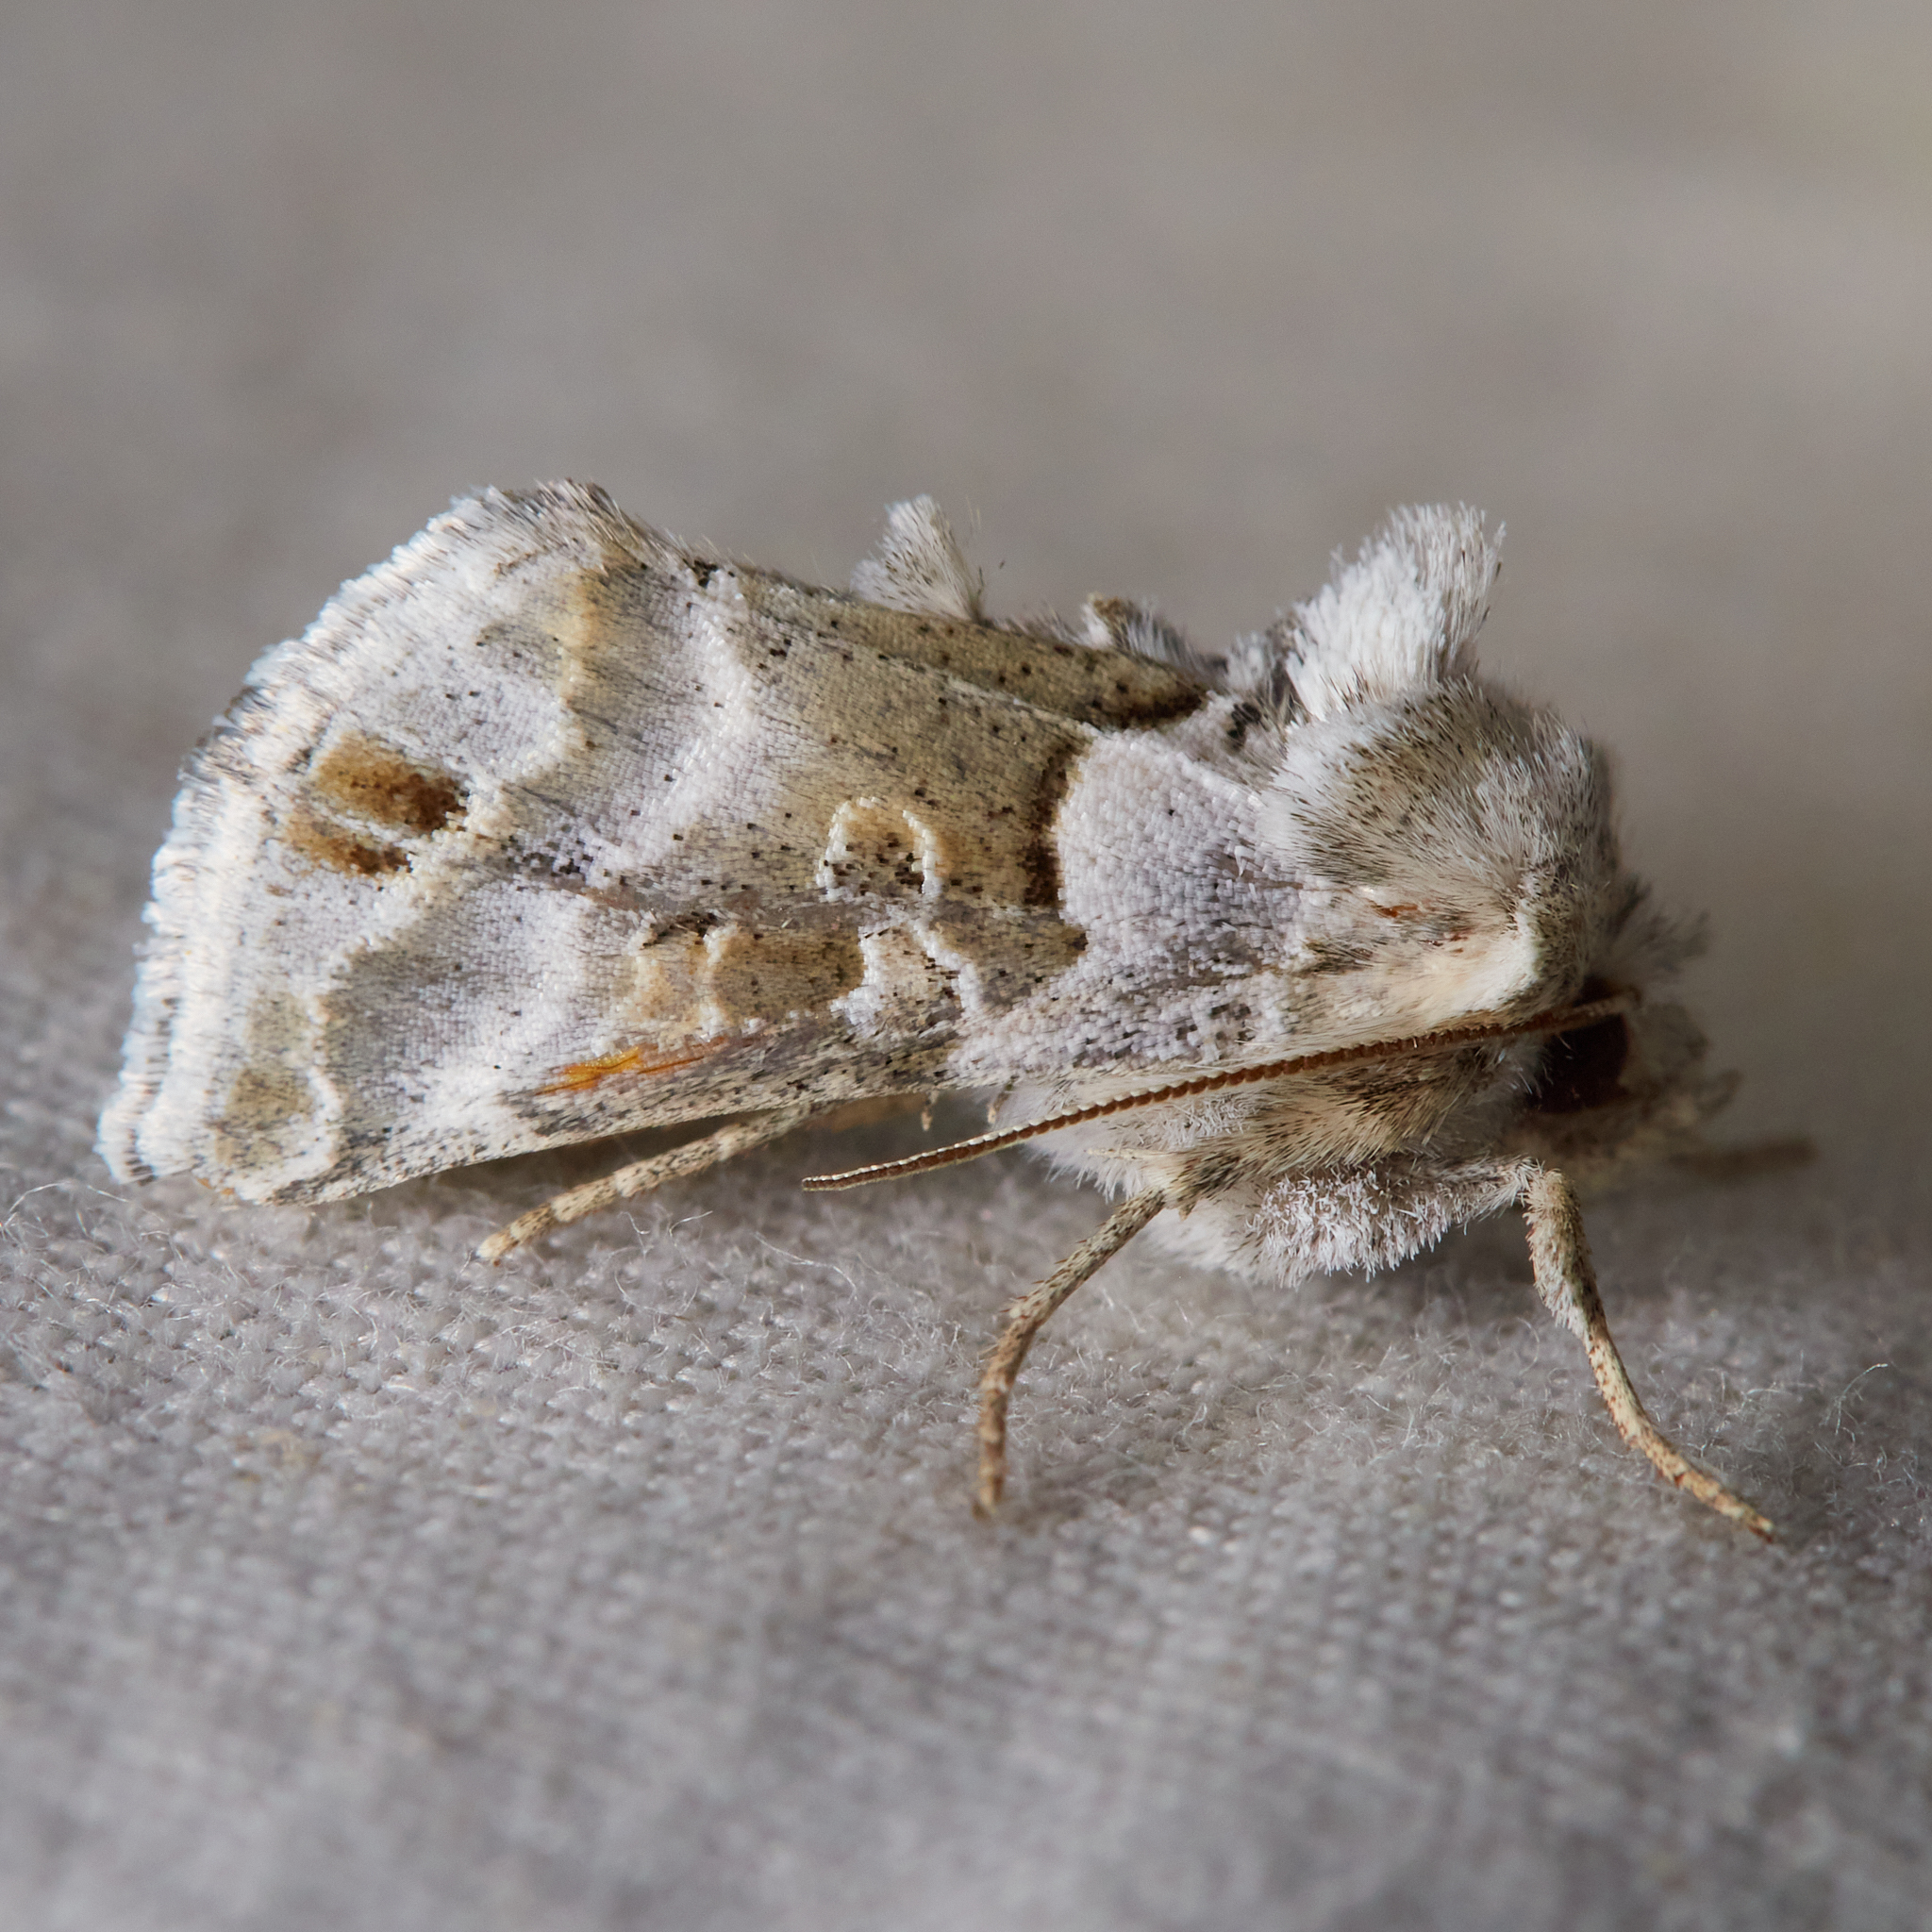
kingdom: Animalia
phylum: Arthropoda
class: Insecta
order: Lepidoptera
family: Noctuidae
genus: Euchalcia
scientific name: Euchalcia albavitta
